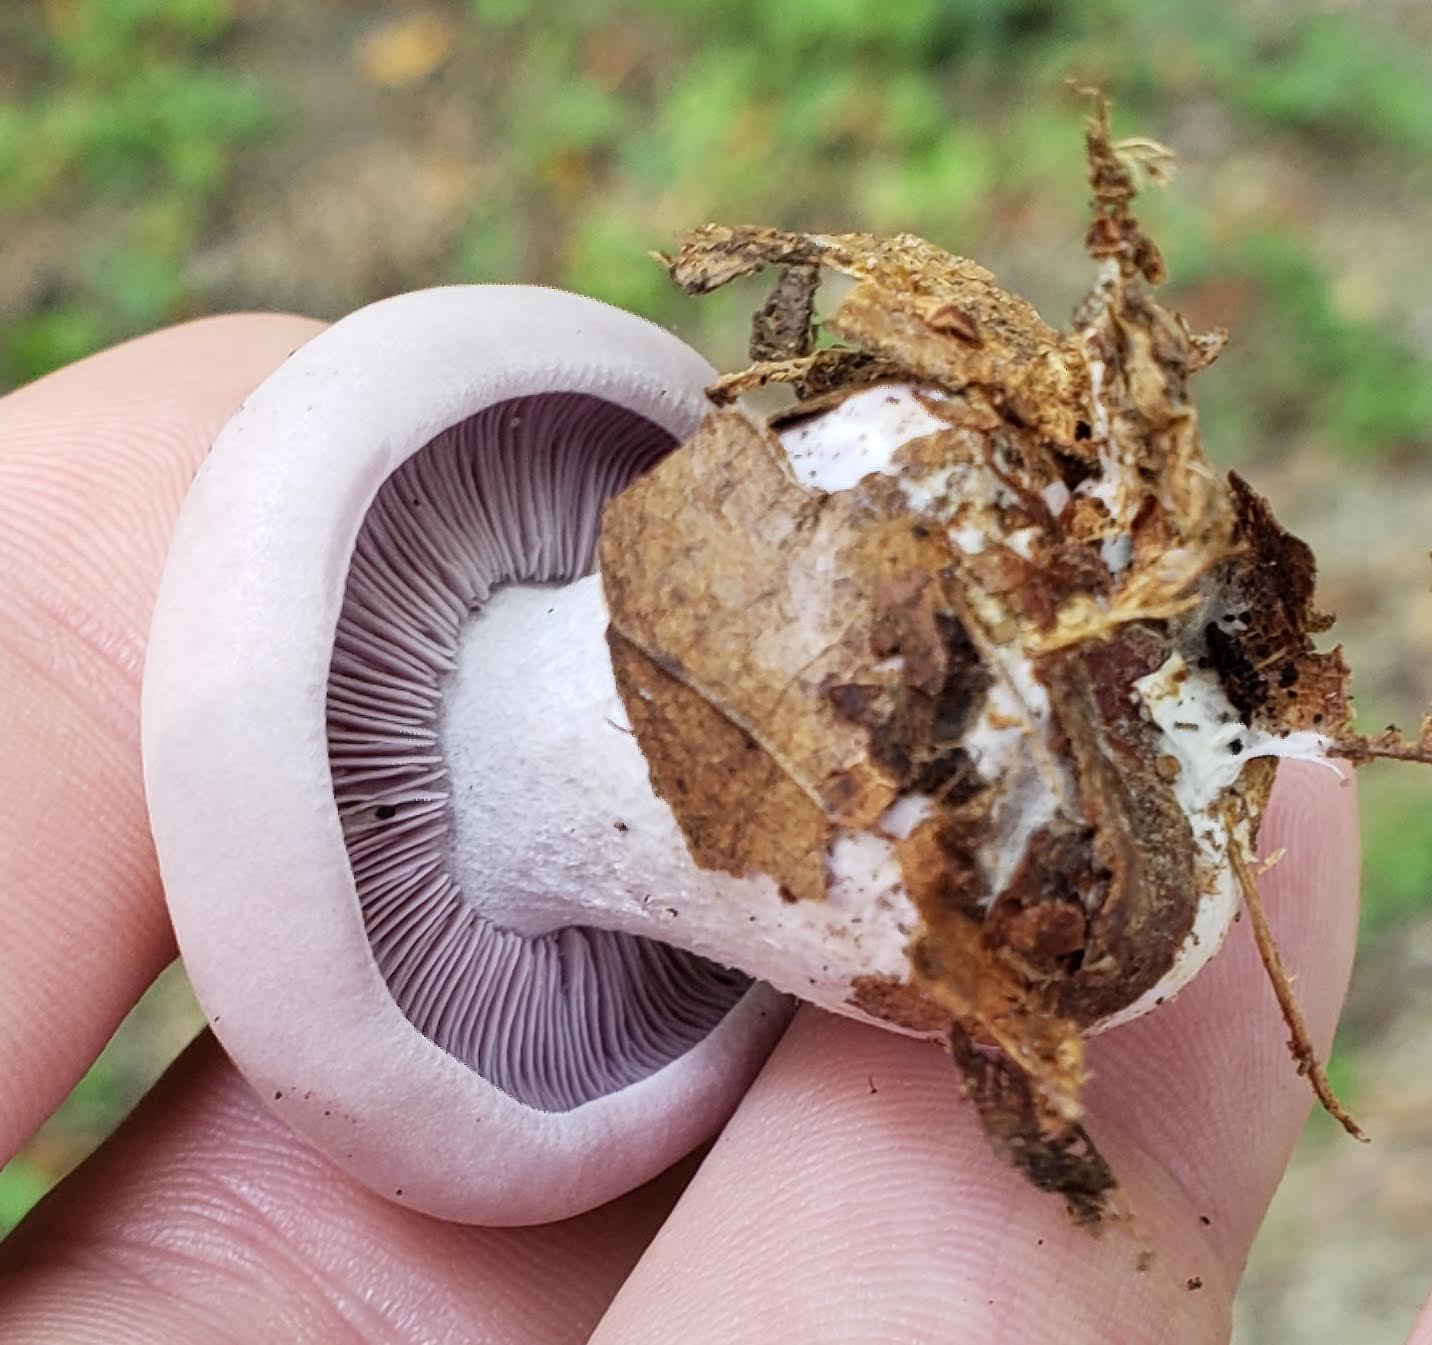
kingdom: Fungi
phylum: Basidiomycota
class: Agaricomycetes
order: Agaricales
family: Tricholomataceae
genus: Collybia
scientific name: Collybia
